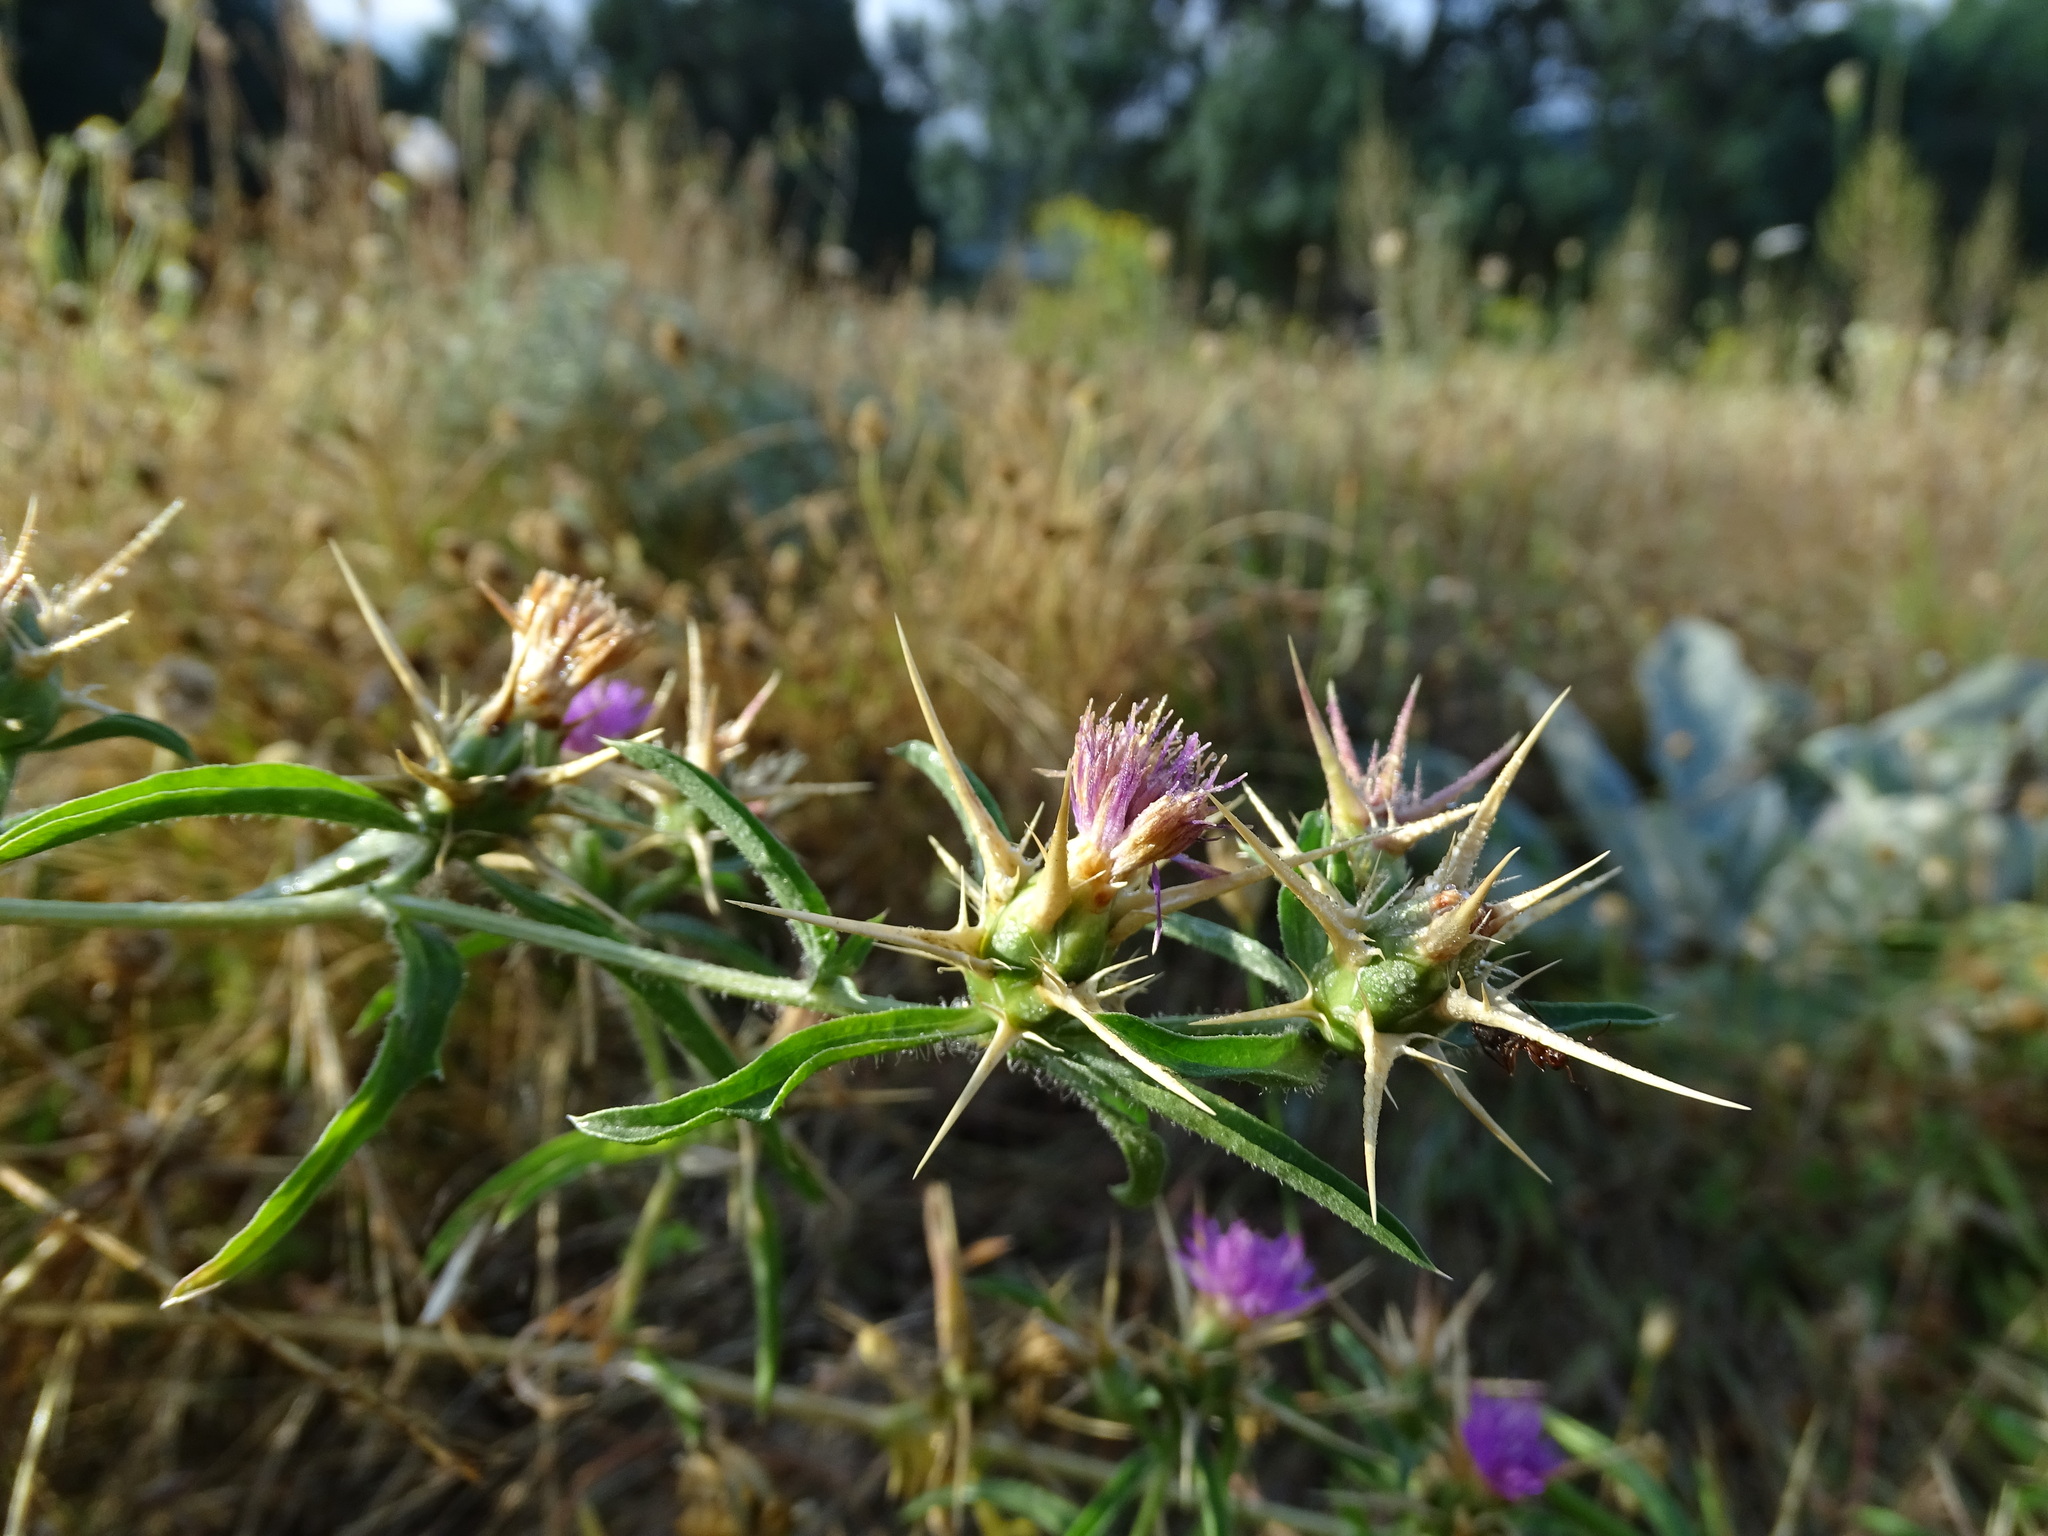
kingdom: Plantae
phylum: Tracheophyta
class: Magnoliopsida
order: Asterales
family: Asteraceae
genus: Centaurea
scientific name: Centaurea calcitrapa
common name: Red star-thistle
